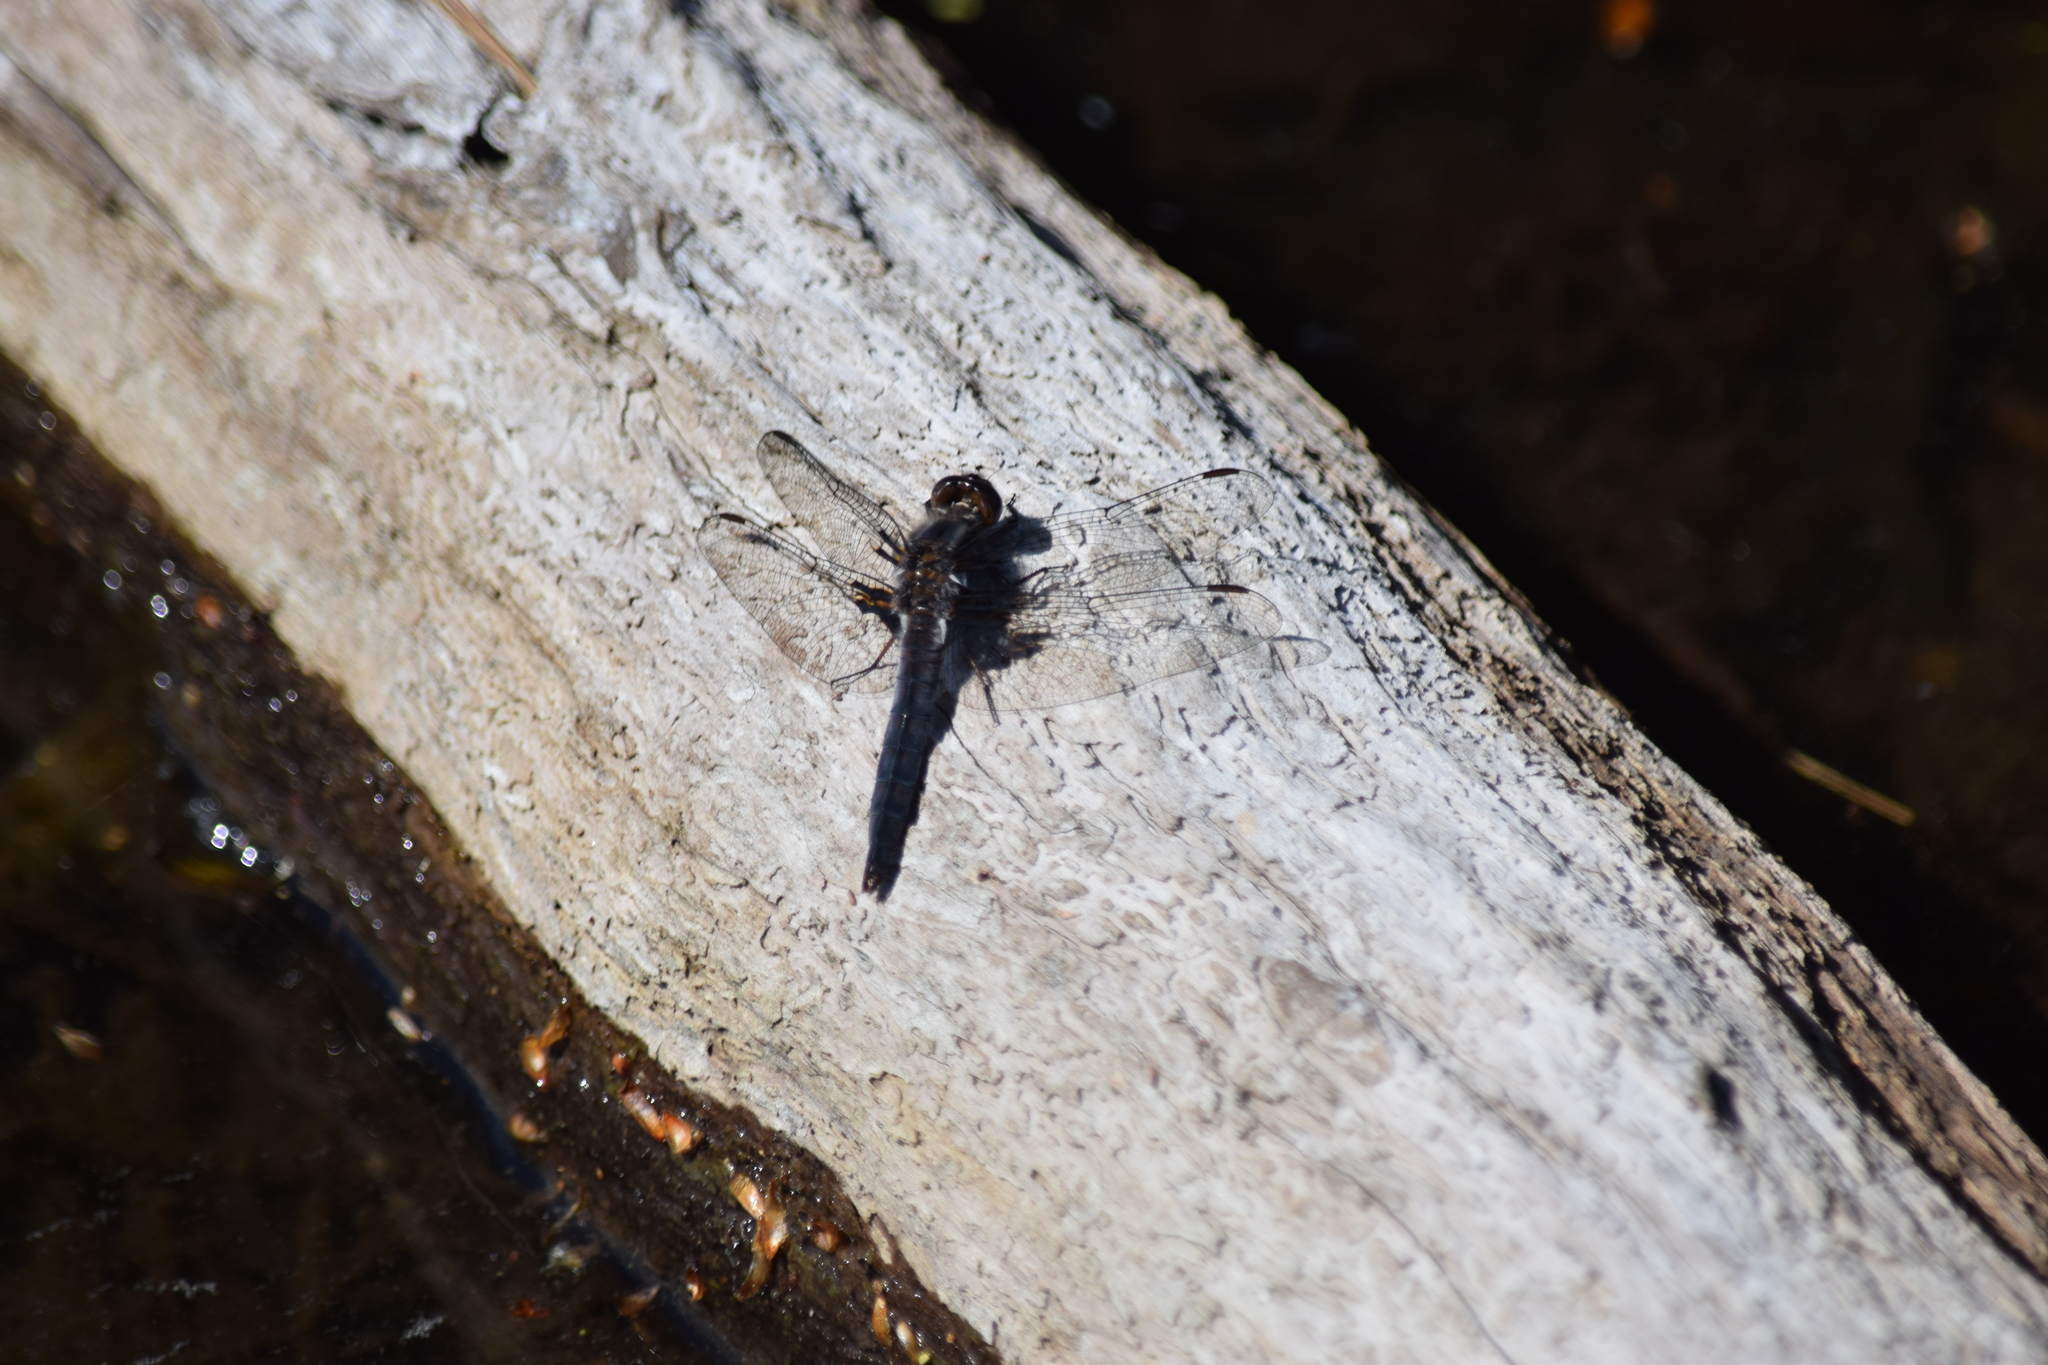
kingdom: Animalia
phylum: Arthropoda
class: Insecta
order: Odonata
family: Libellulidae
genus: Ladona
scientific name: Ladona deplanata
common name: Blue corporal
